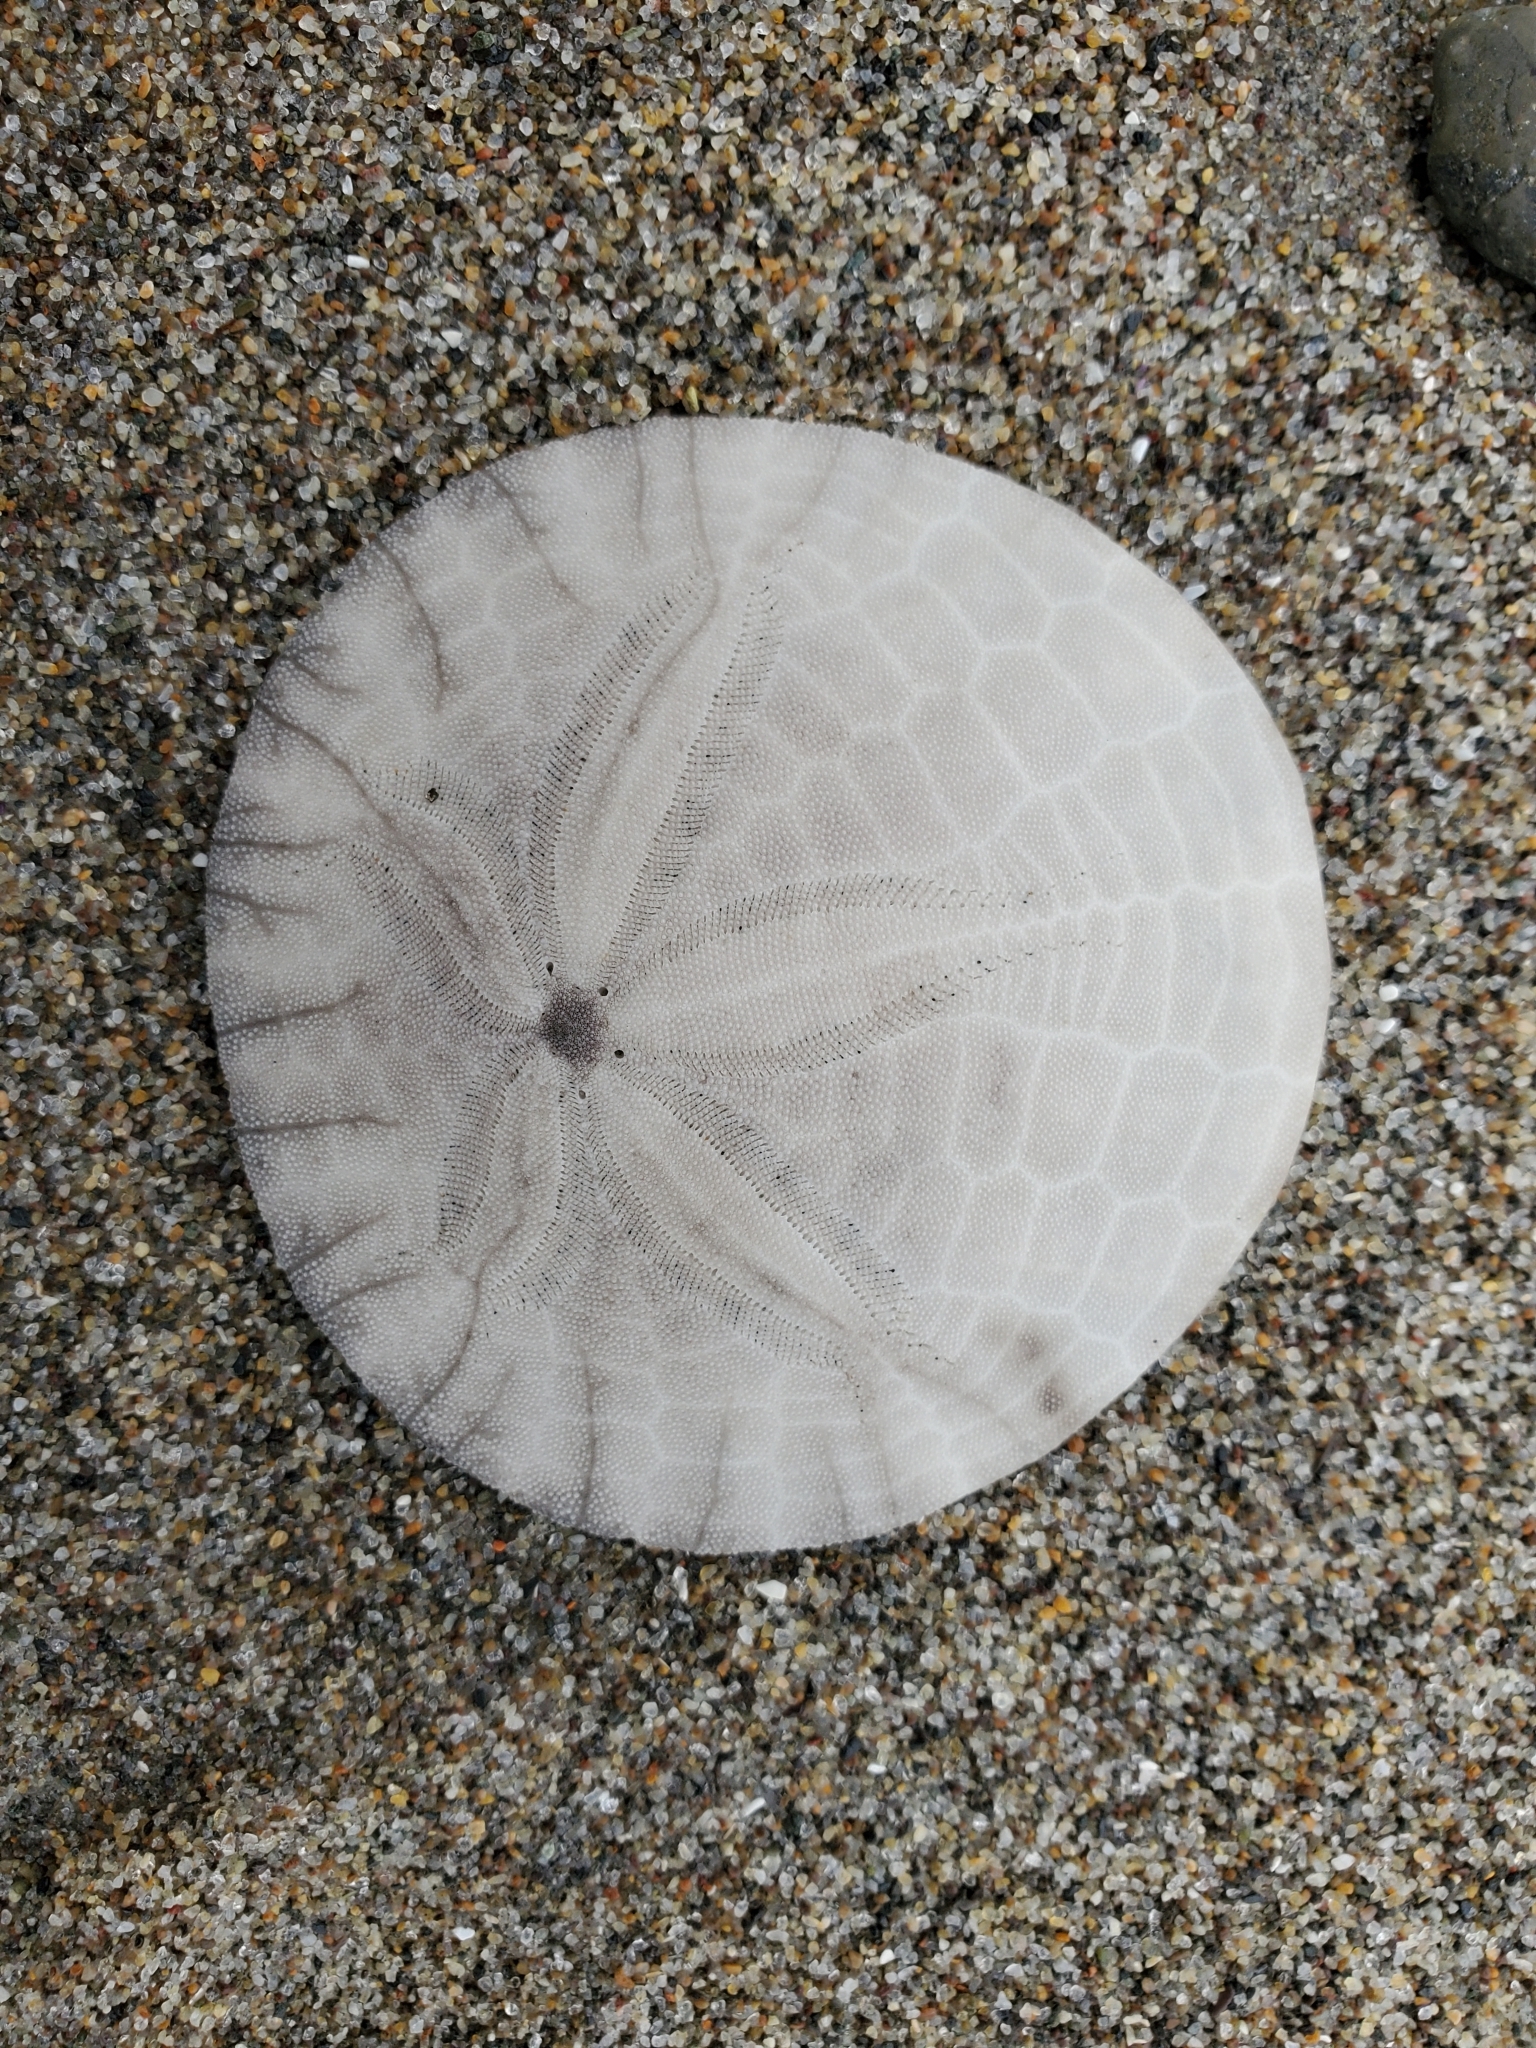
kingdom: Animalia
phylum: Echinodermata
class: Echinoidea
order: Echinolampadacea
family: Dendrasteridae
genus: Dendraster
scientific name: Dendraster excentricus
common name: Eccentric sand dollar sea urchin
